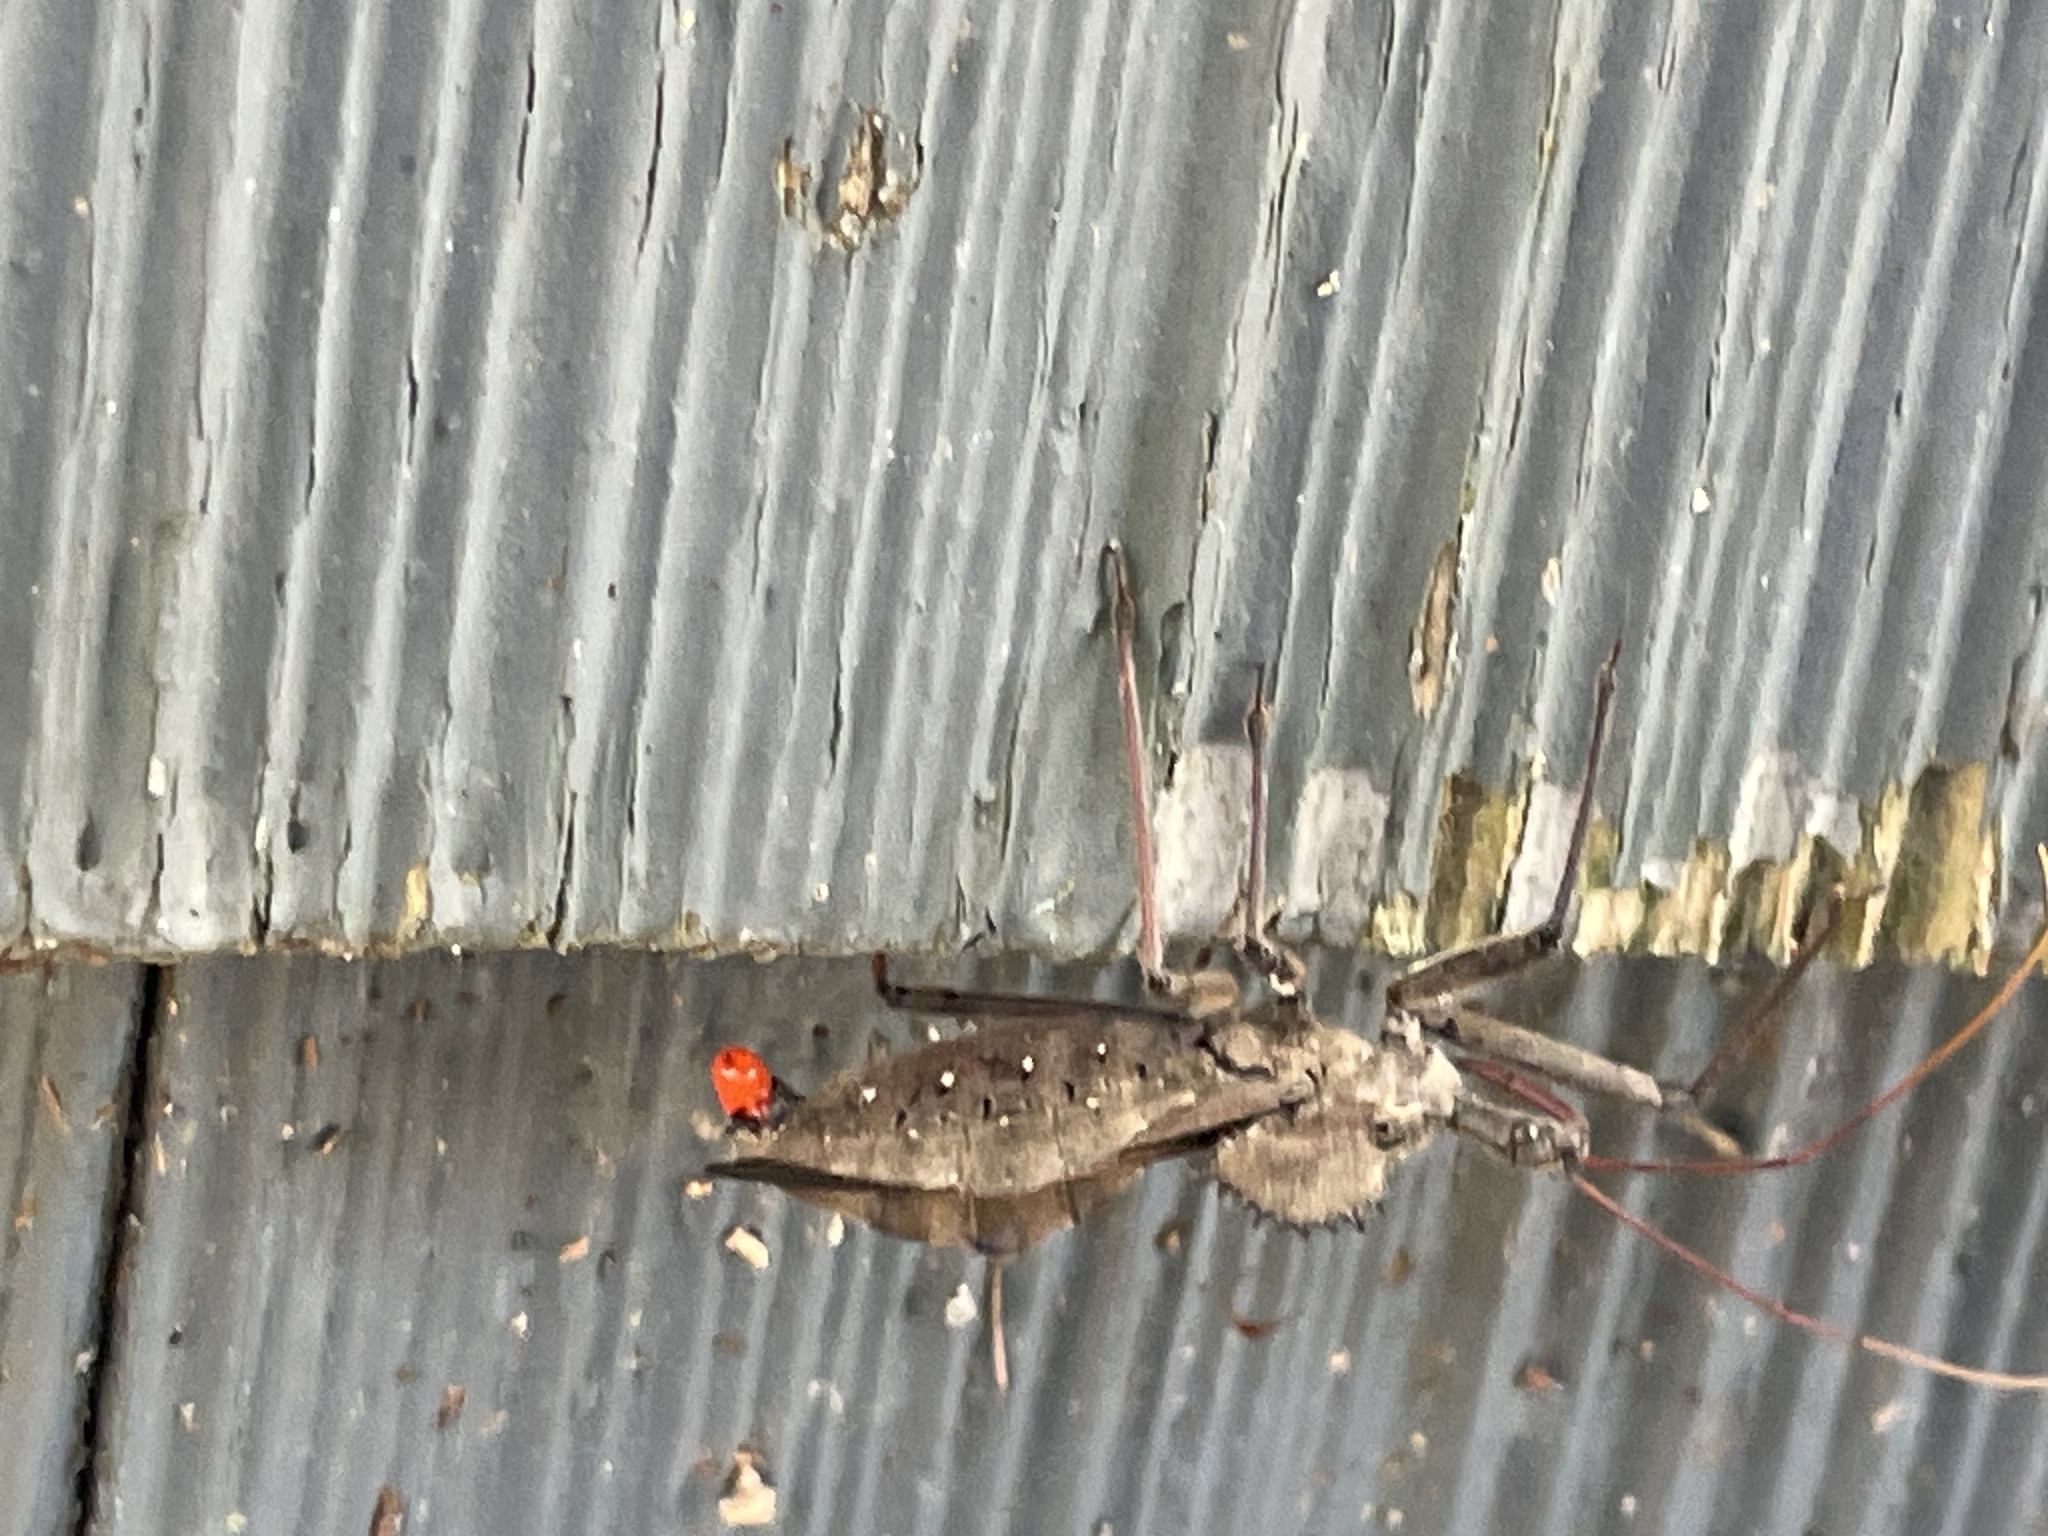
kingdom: Animalia
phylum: Arthropoda
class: Insecta
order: Hemiptera
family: Reduviidae
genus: Arilus
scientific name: Arilus cristatus
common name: North american wheel bug
